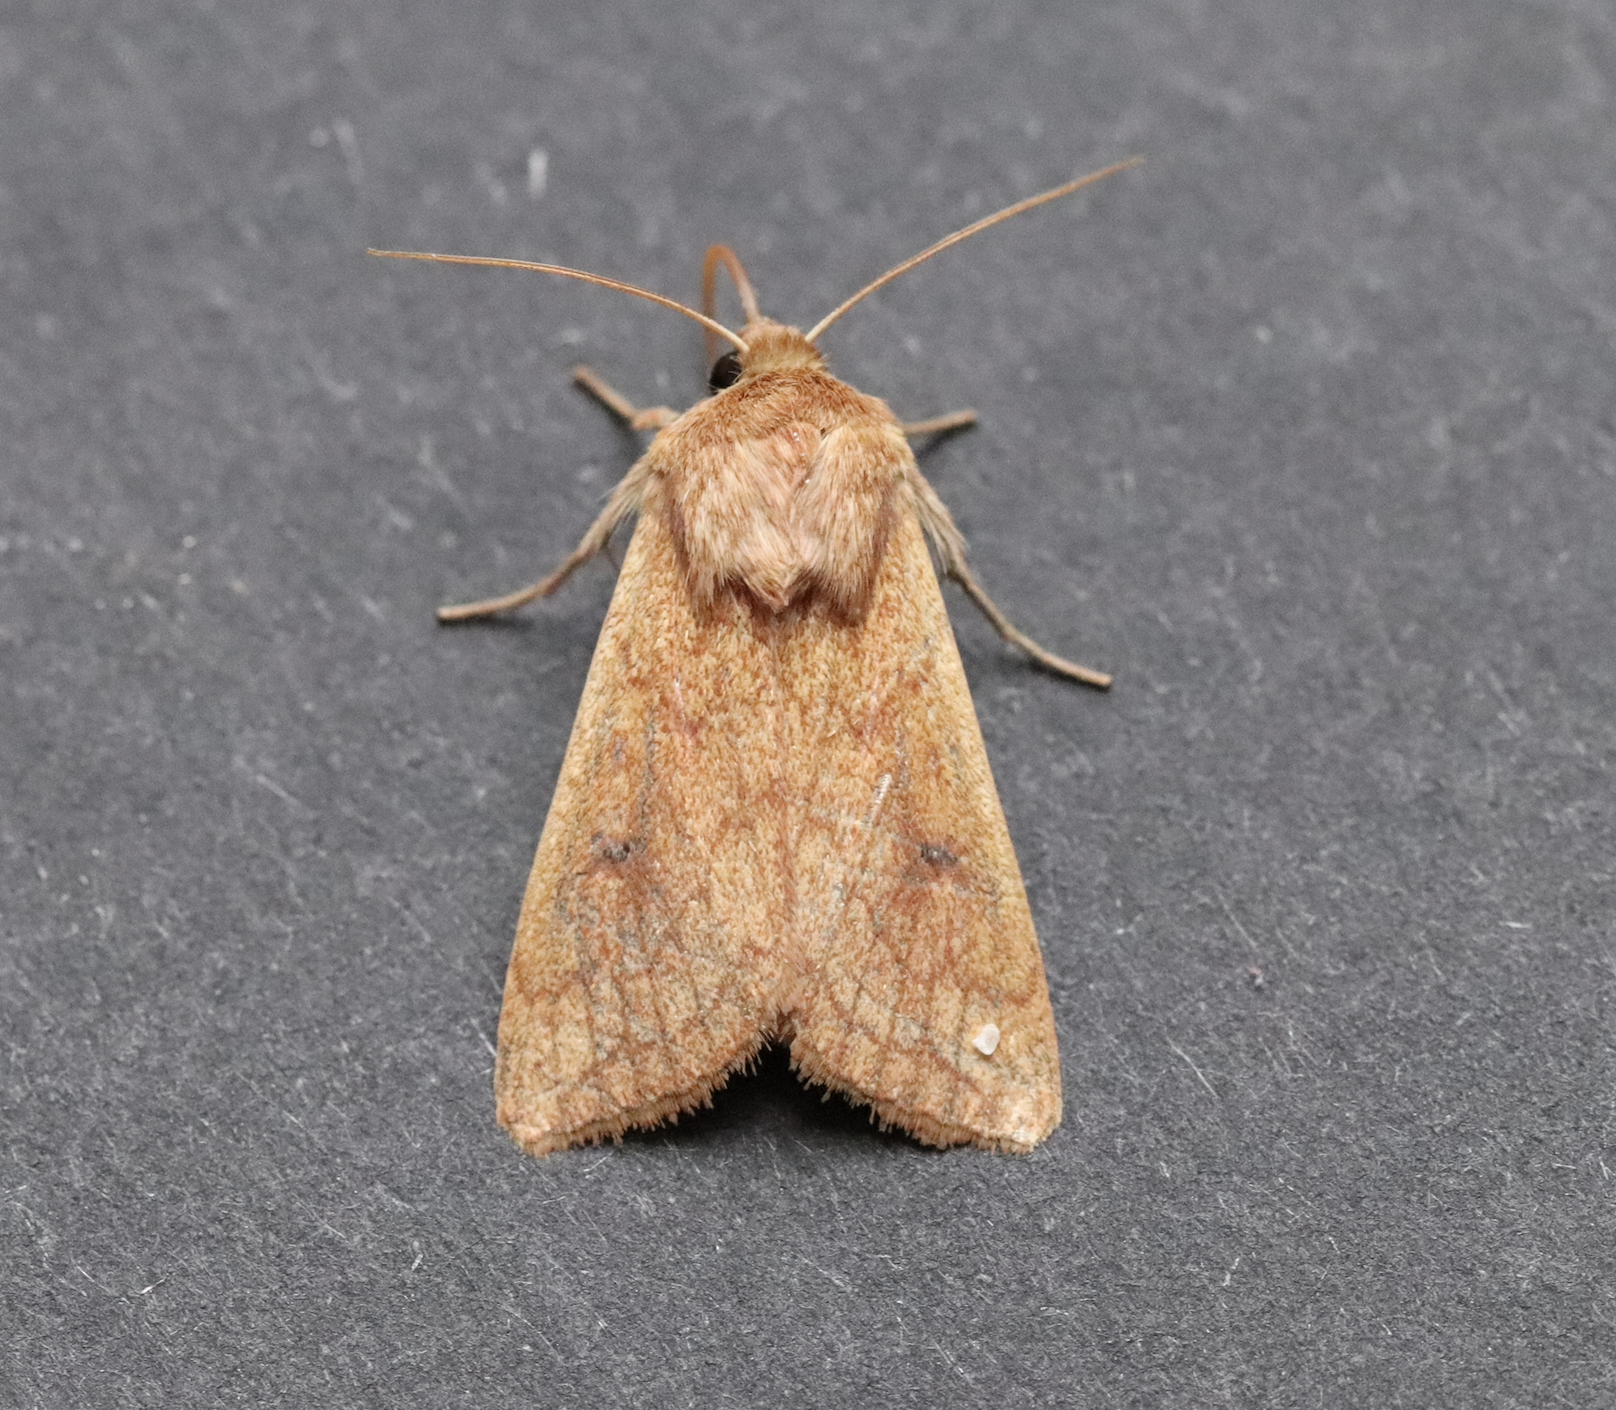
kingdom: Animalia
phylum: Arthropoda
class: Insecta
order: Lepidoptera
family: Noctuidae
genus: Mythimna
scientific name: Mythimna vitellina
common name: Delicate
